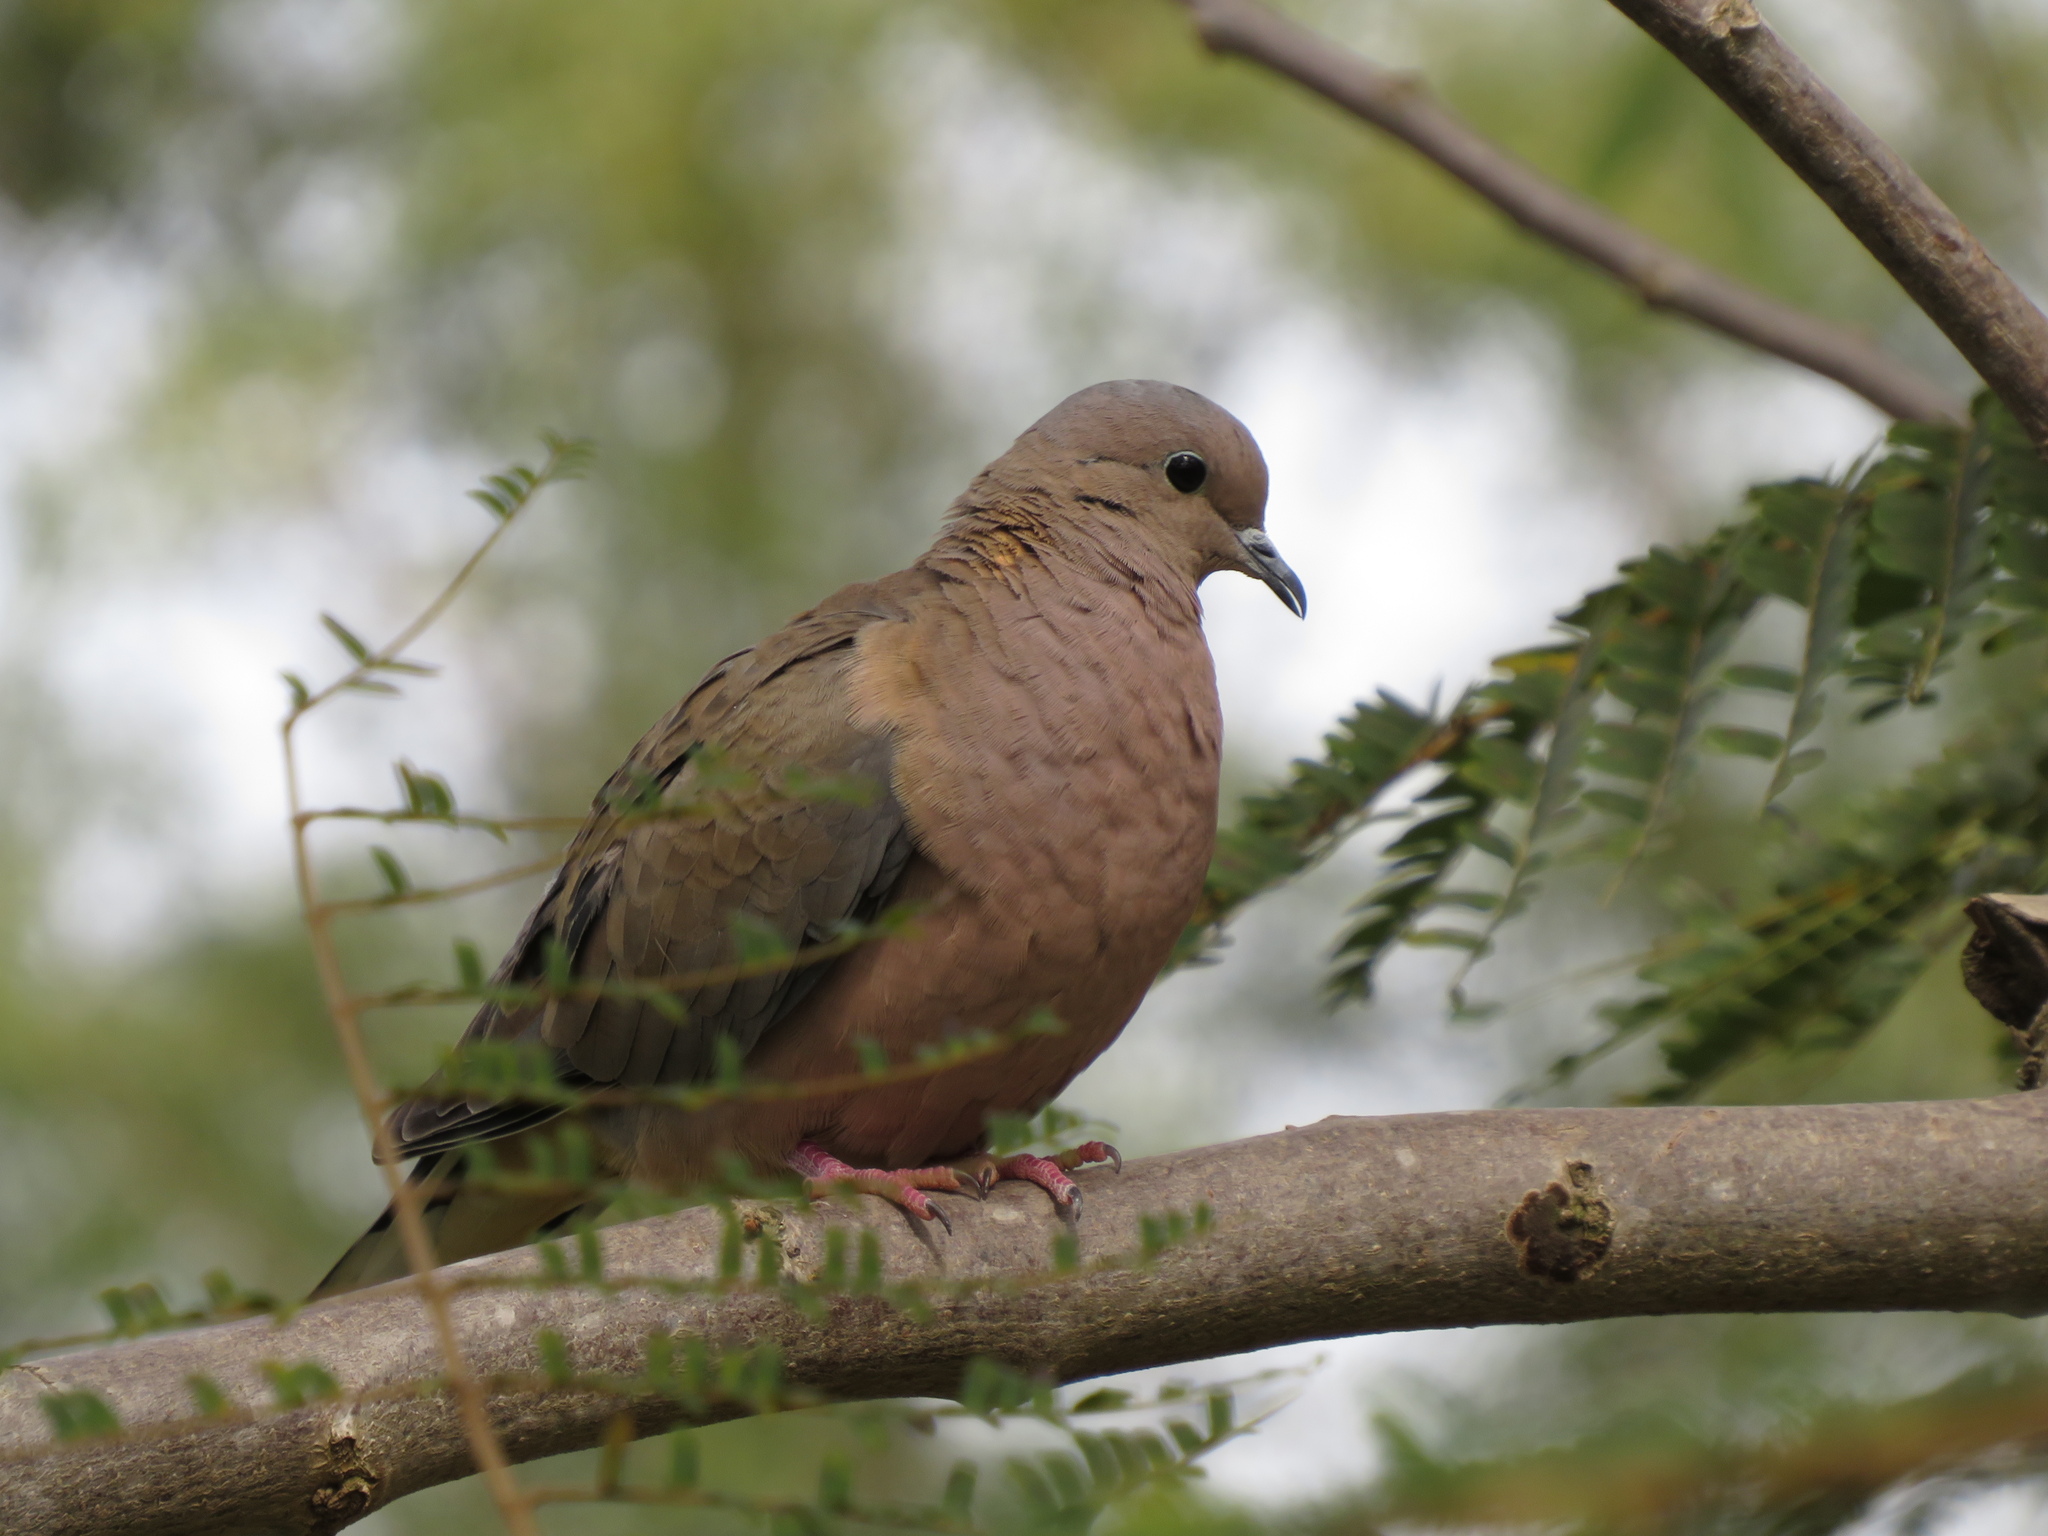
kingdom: Animalia
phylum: Chordata
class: Aves
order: Columbiformes
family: Columbidae
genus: Zenaida
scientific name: Zenaida auriculata
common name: Eared dove
